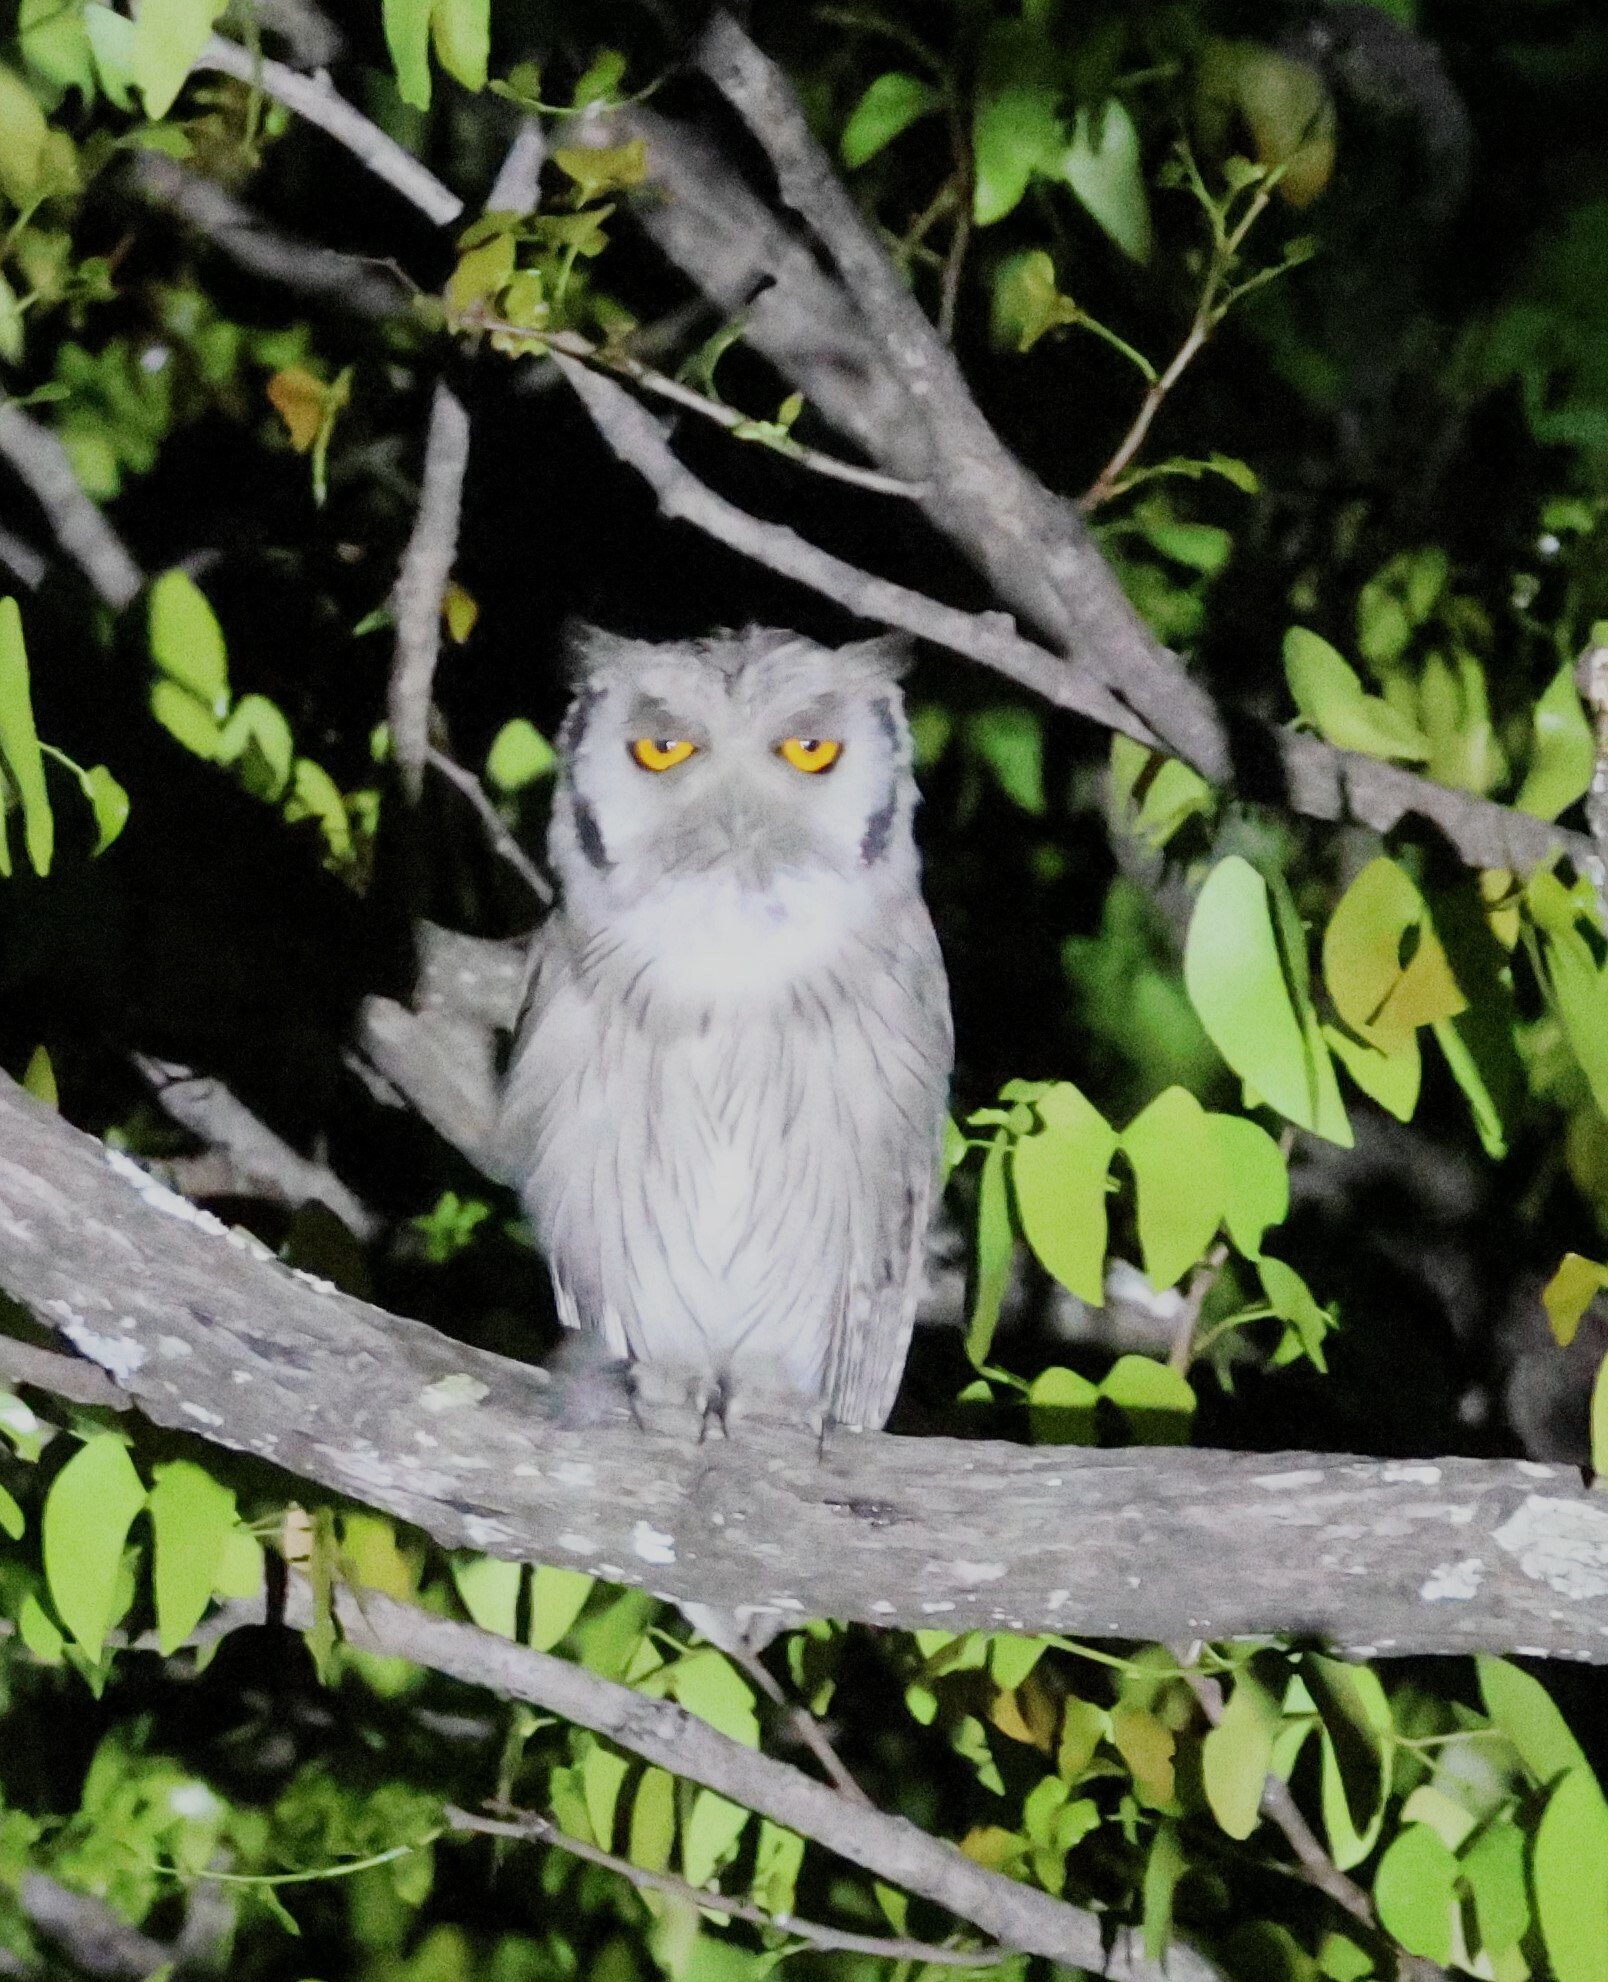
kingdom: Animalia
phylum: Chordata
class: Aves
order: Strigiformes
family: Strigidae
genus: Ptilopsis
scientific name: Ptilopsis granti
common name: Southern white-faced owl
